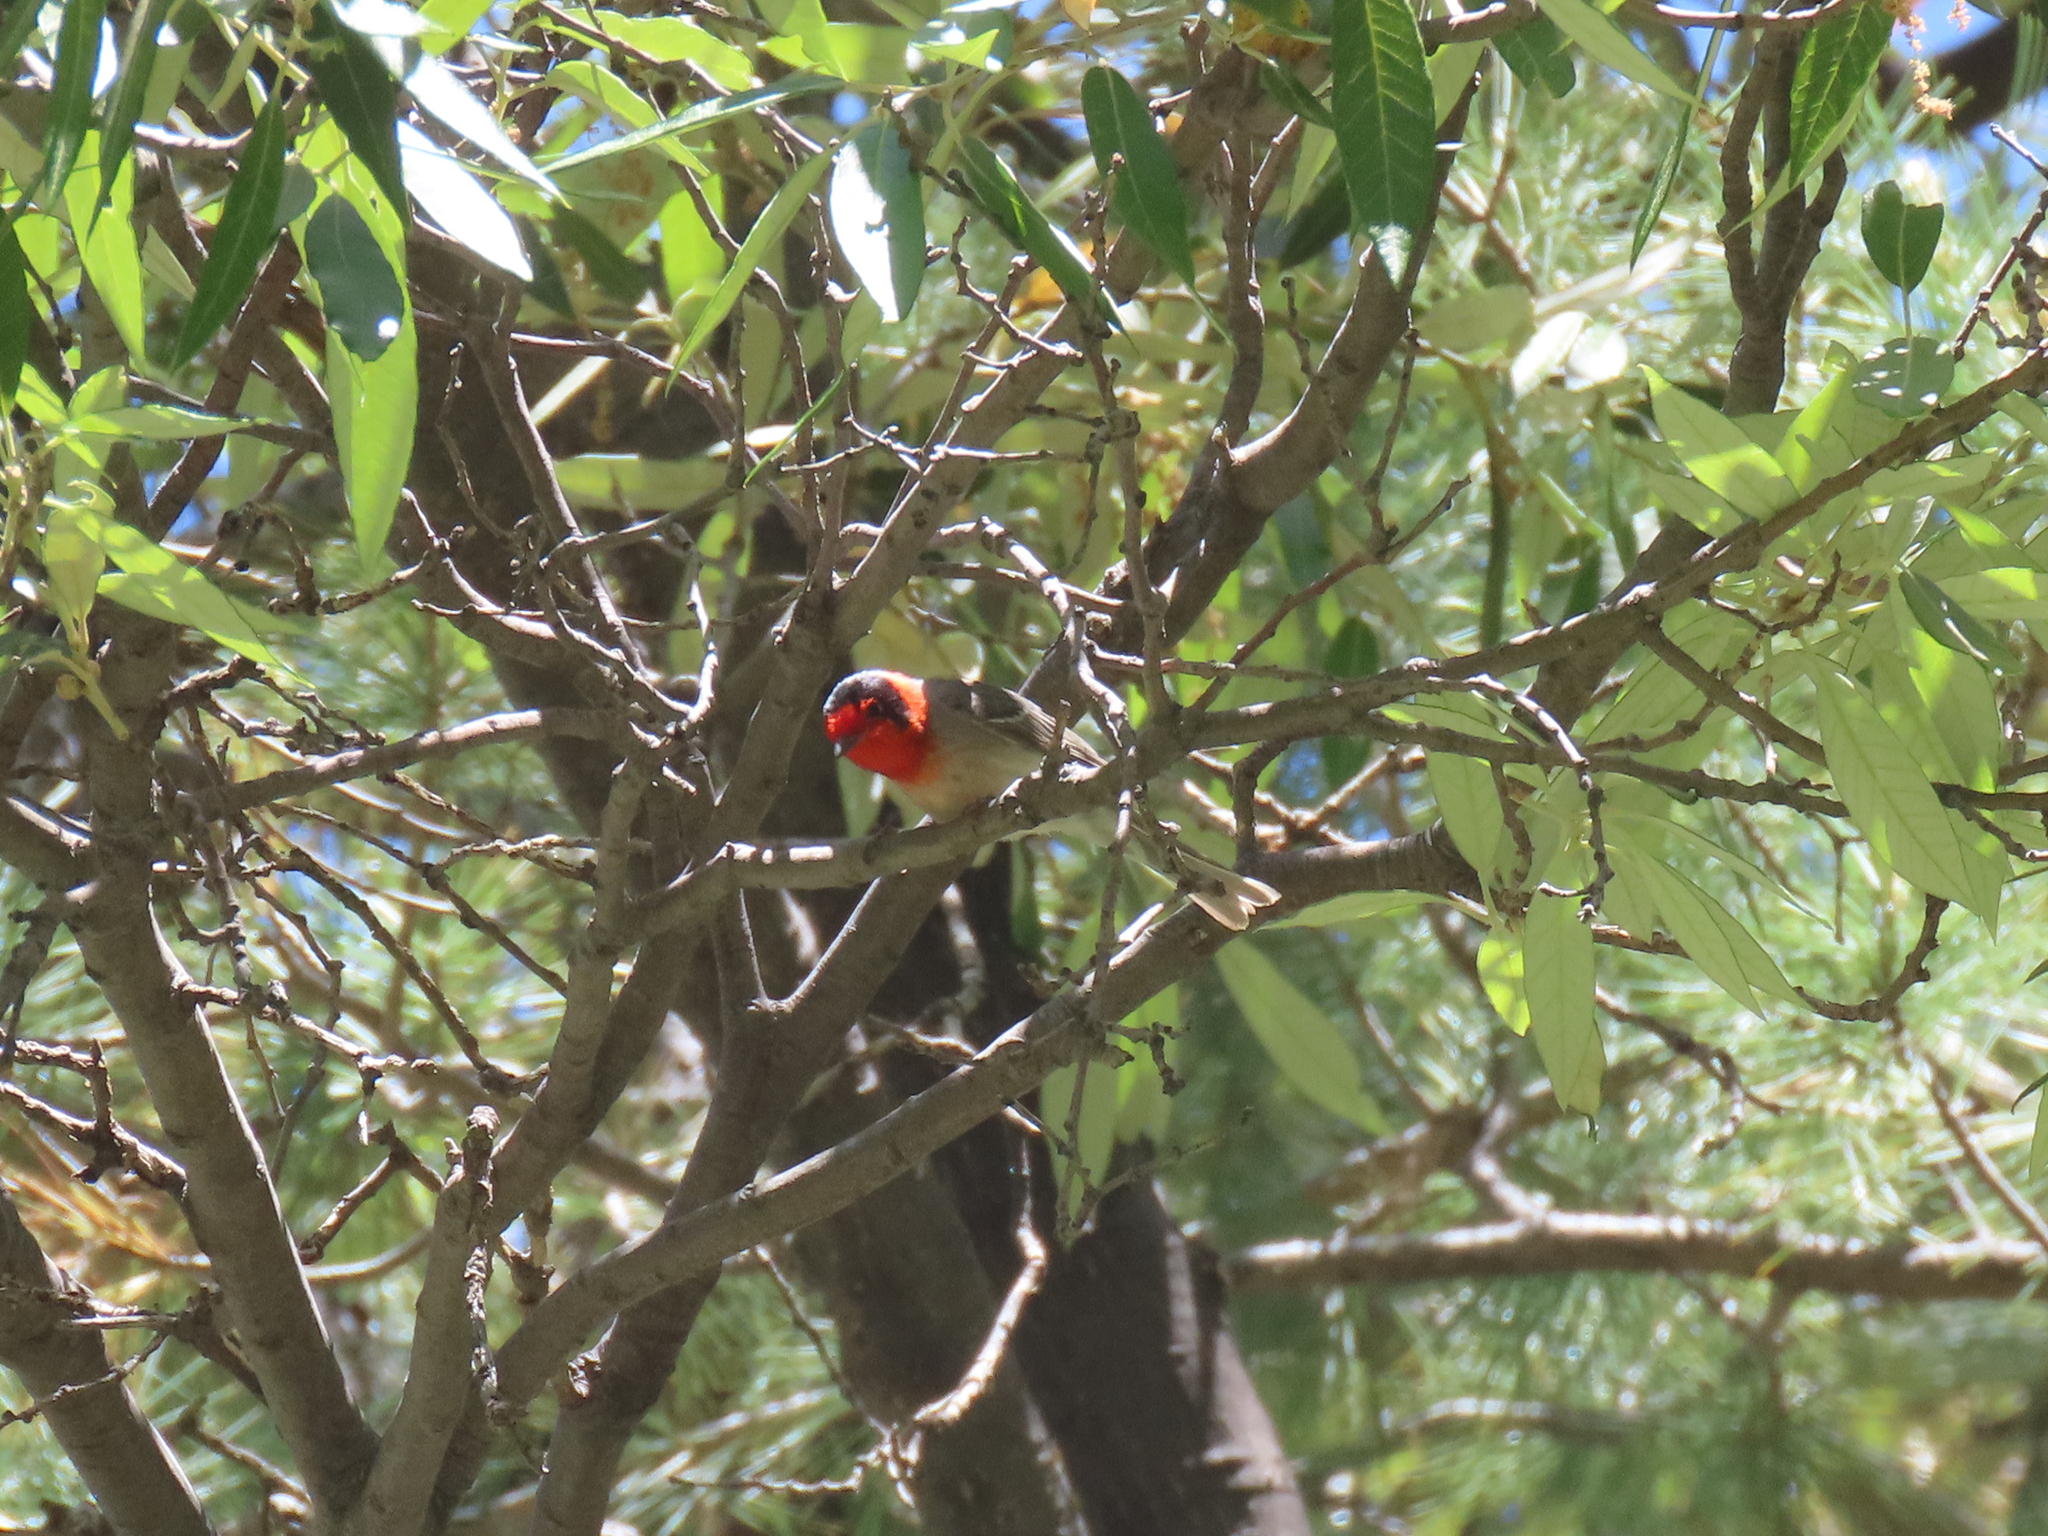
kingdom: Animalia
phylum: Chordata
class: Aves
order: Passeriformes
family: Parulidae
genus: Cardellina
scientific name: Cardellina rubrifrons
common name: Red-faced warbler
